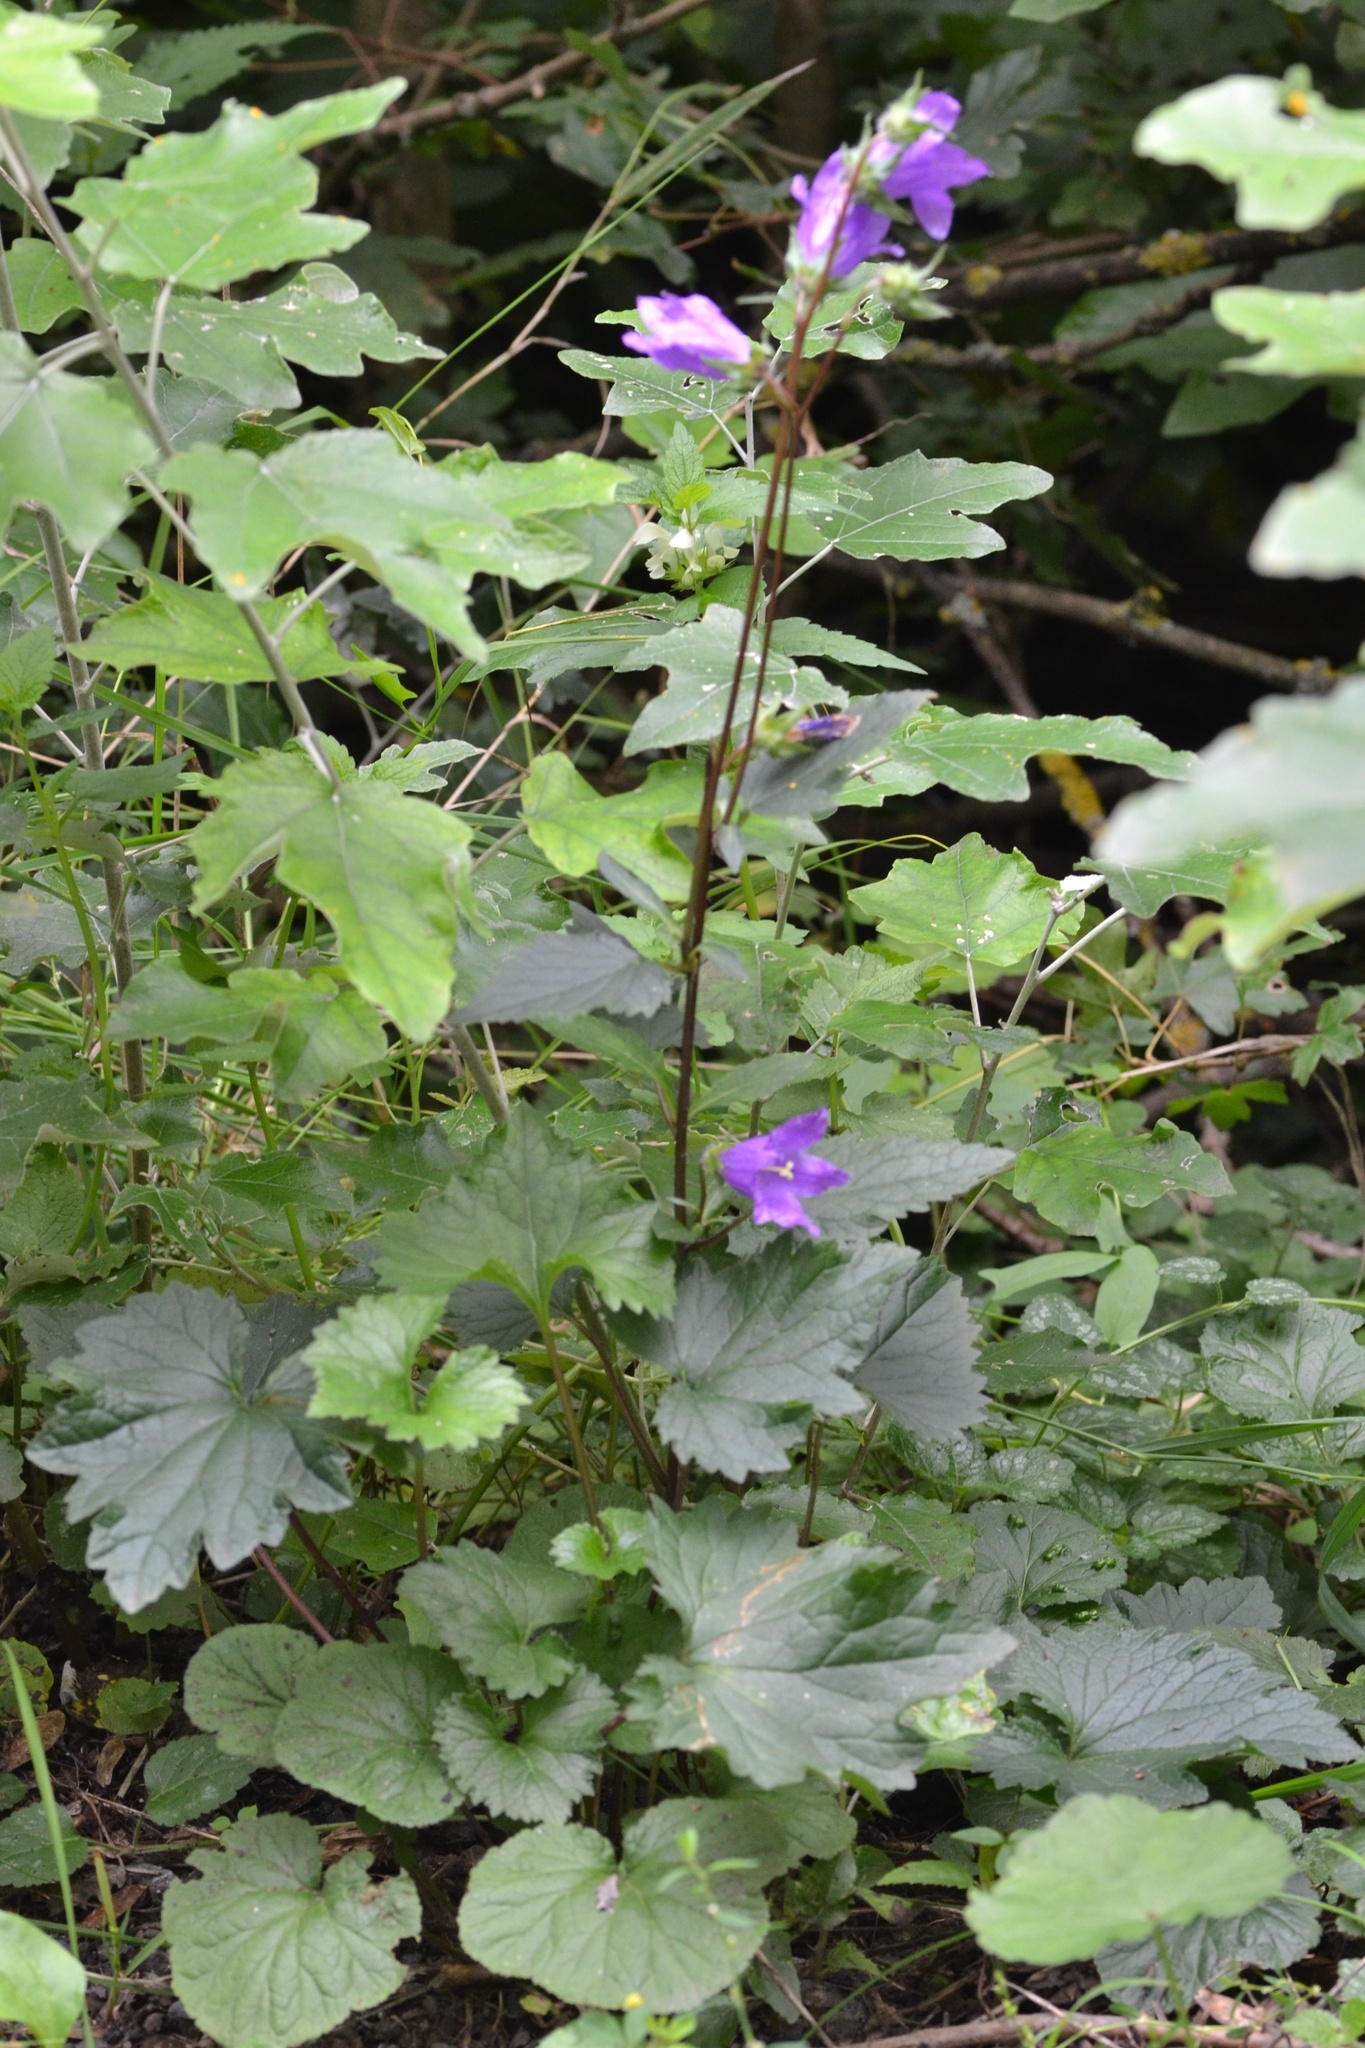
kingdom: Plantae
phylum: Tracheophyta
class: Magnoliopsida
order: Asterales
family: Campanulaceae
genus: Campanula
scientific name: Campanula trachelium
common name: Nettle-leaved bellflower
